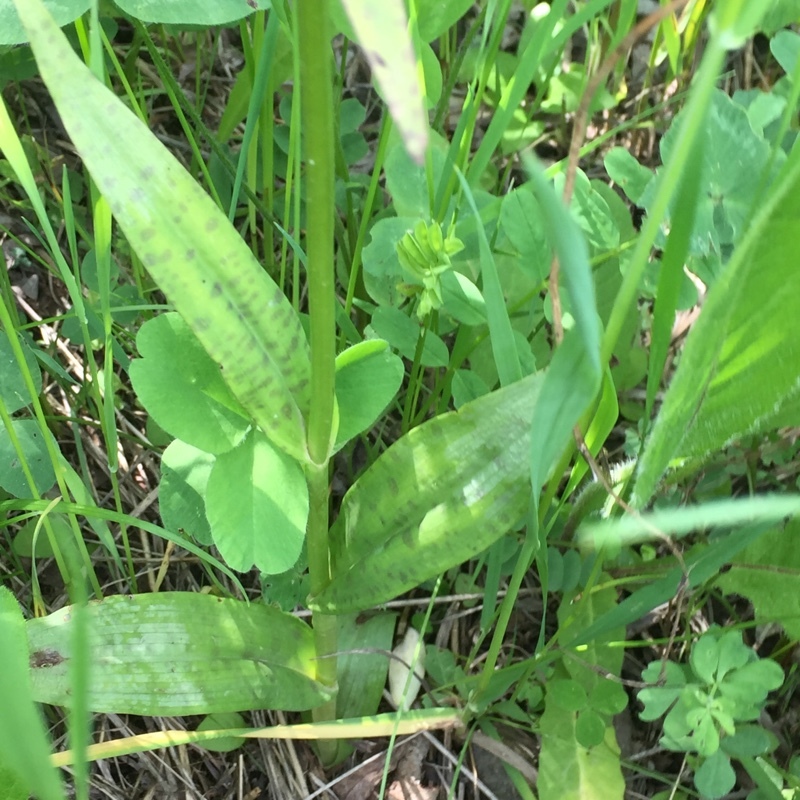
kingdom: Plantae
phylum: Tracheophyta
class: Liliopsida
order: Asparagales
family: Orchidaceae
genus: Dactylorhiza
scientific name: Dactylorhiza maculata
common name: Heath spotted-orchid
